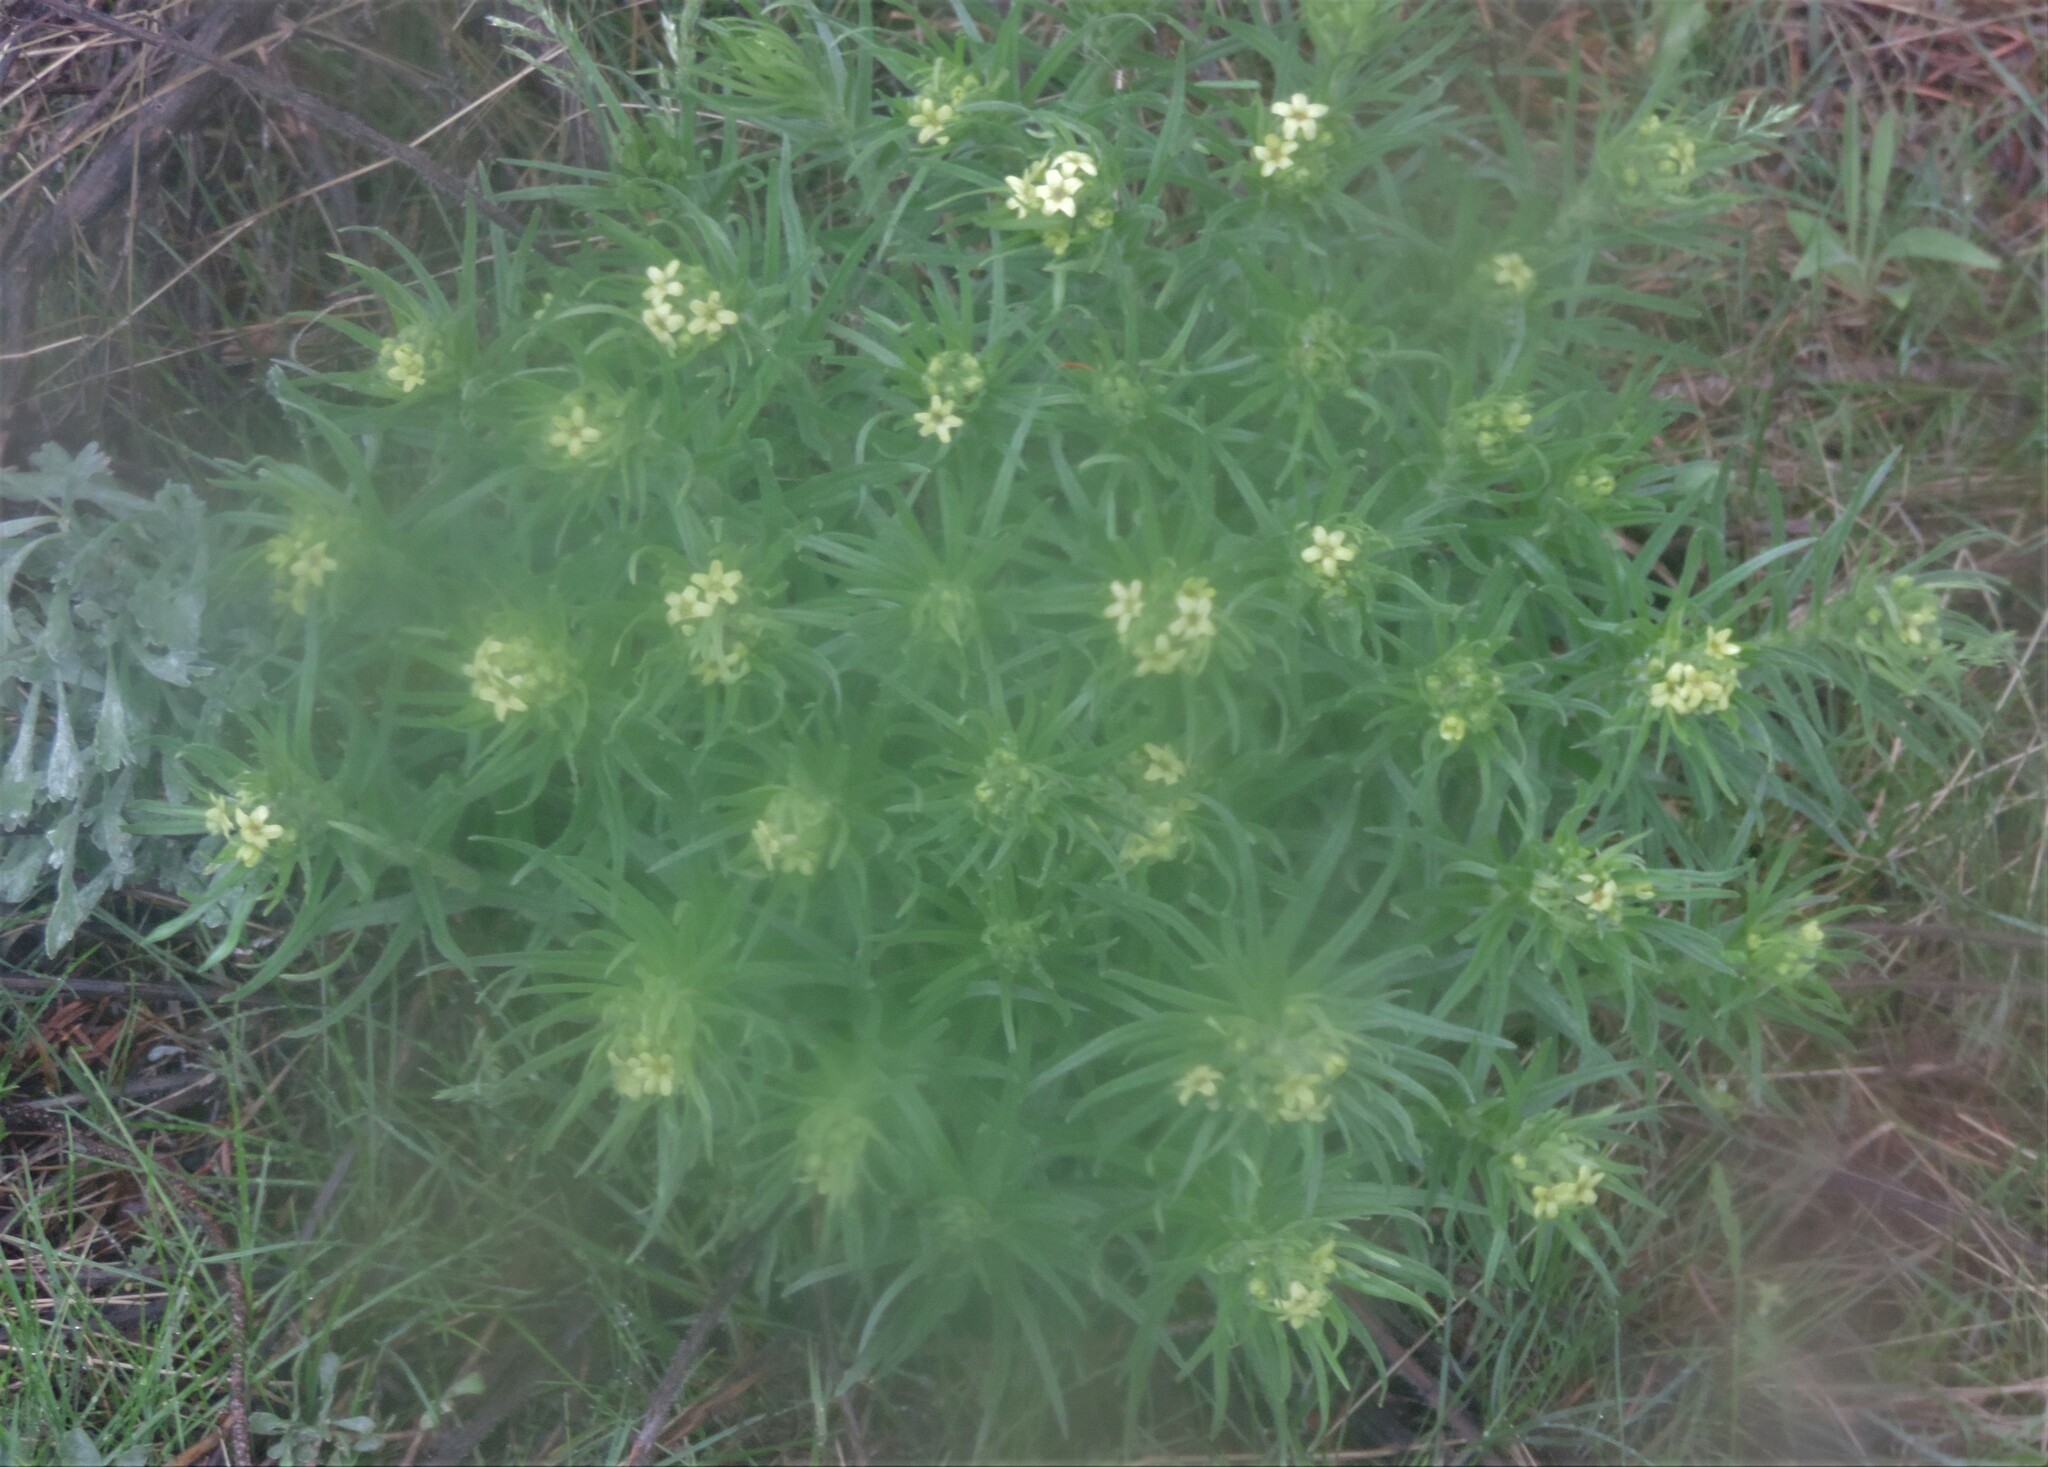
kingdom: Plantae
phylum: Tracheophyta
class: Magnoliopsida
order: Boraginales
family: Boraginaceae
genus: Lithospermum
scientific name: Lithospermum ruderale
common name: Western gromwell
